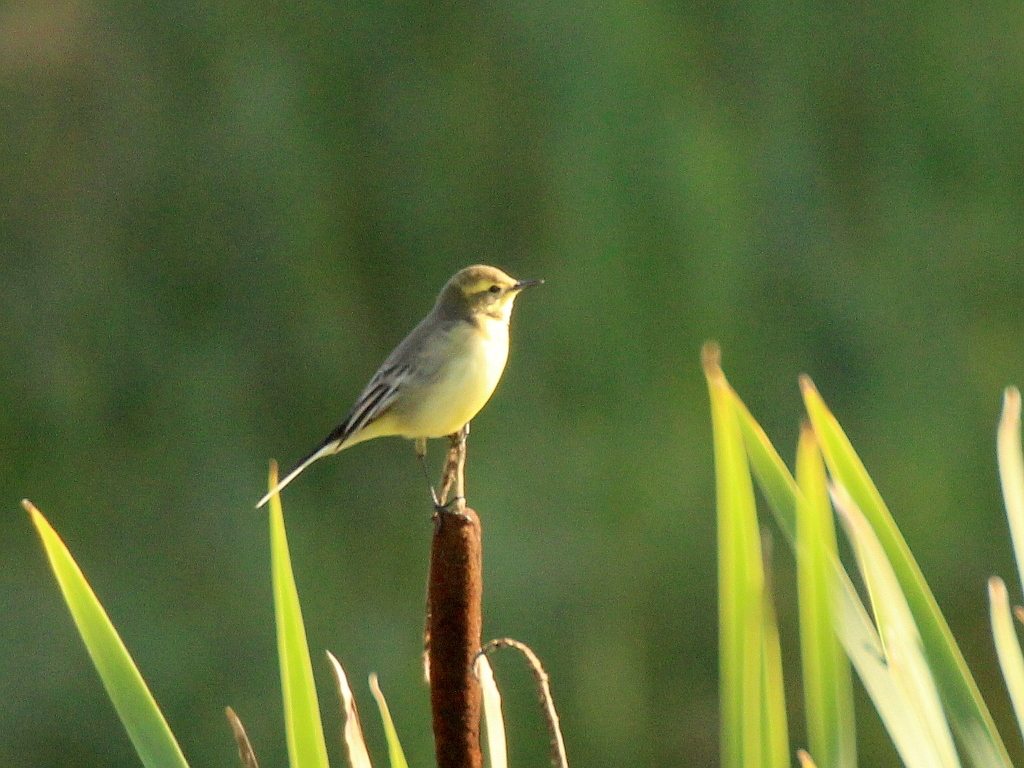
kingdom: Animalia
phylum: Chordata
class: Aves
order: Passeriformes
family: Motacillidae
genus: Motacilla
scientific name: Motacilla citreola
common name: Citrine wagtail
